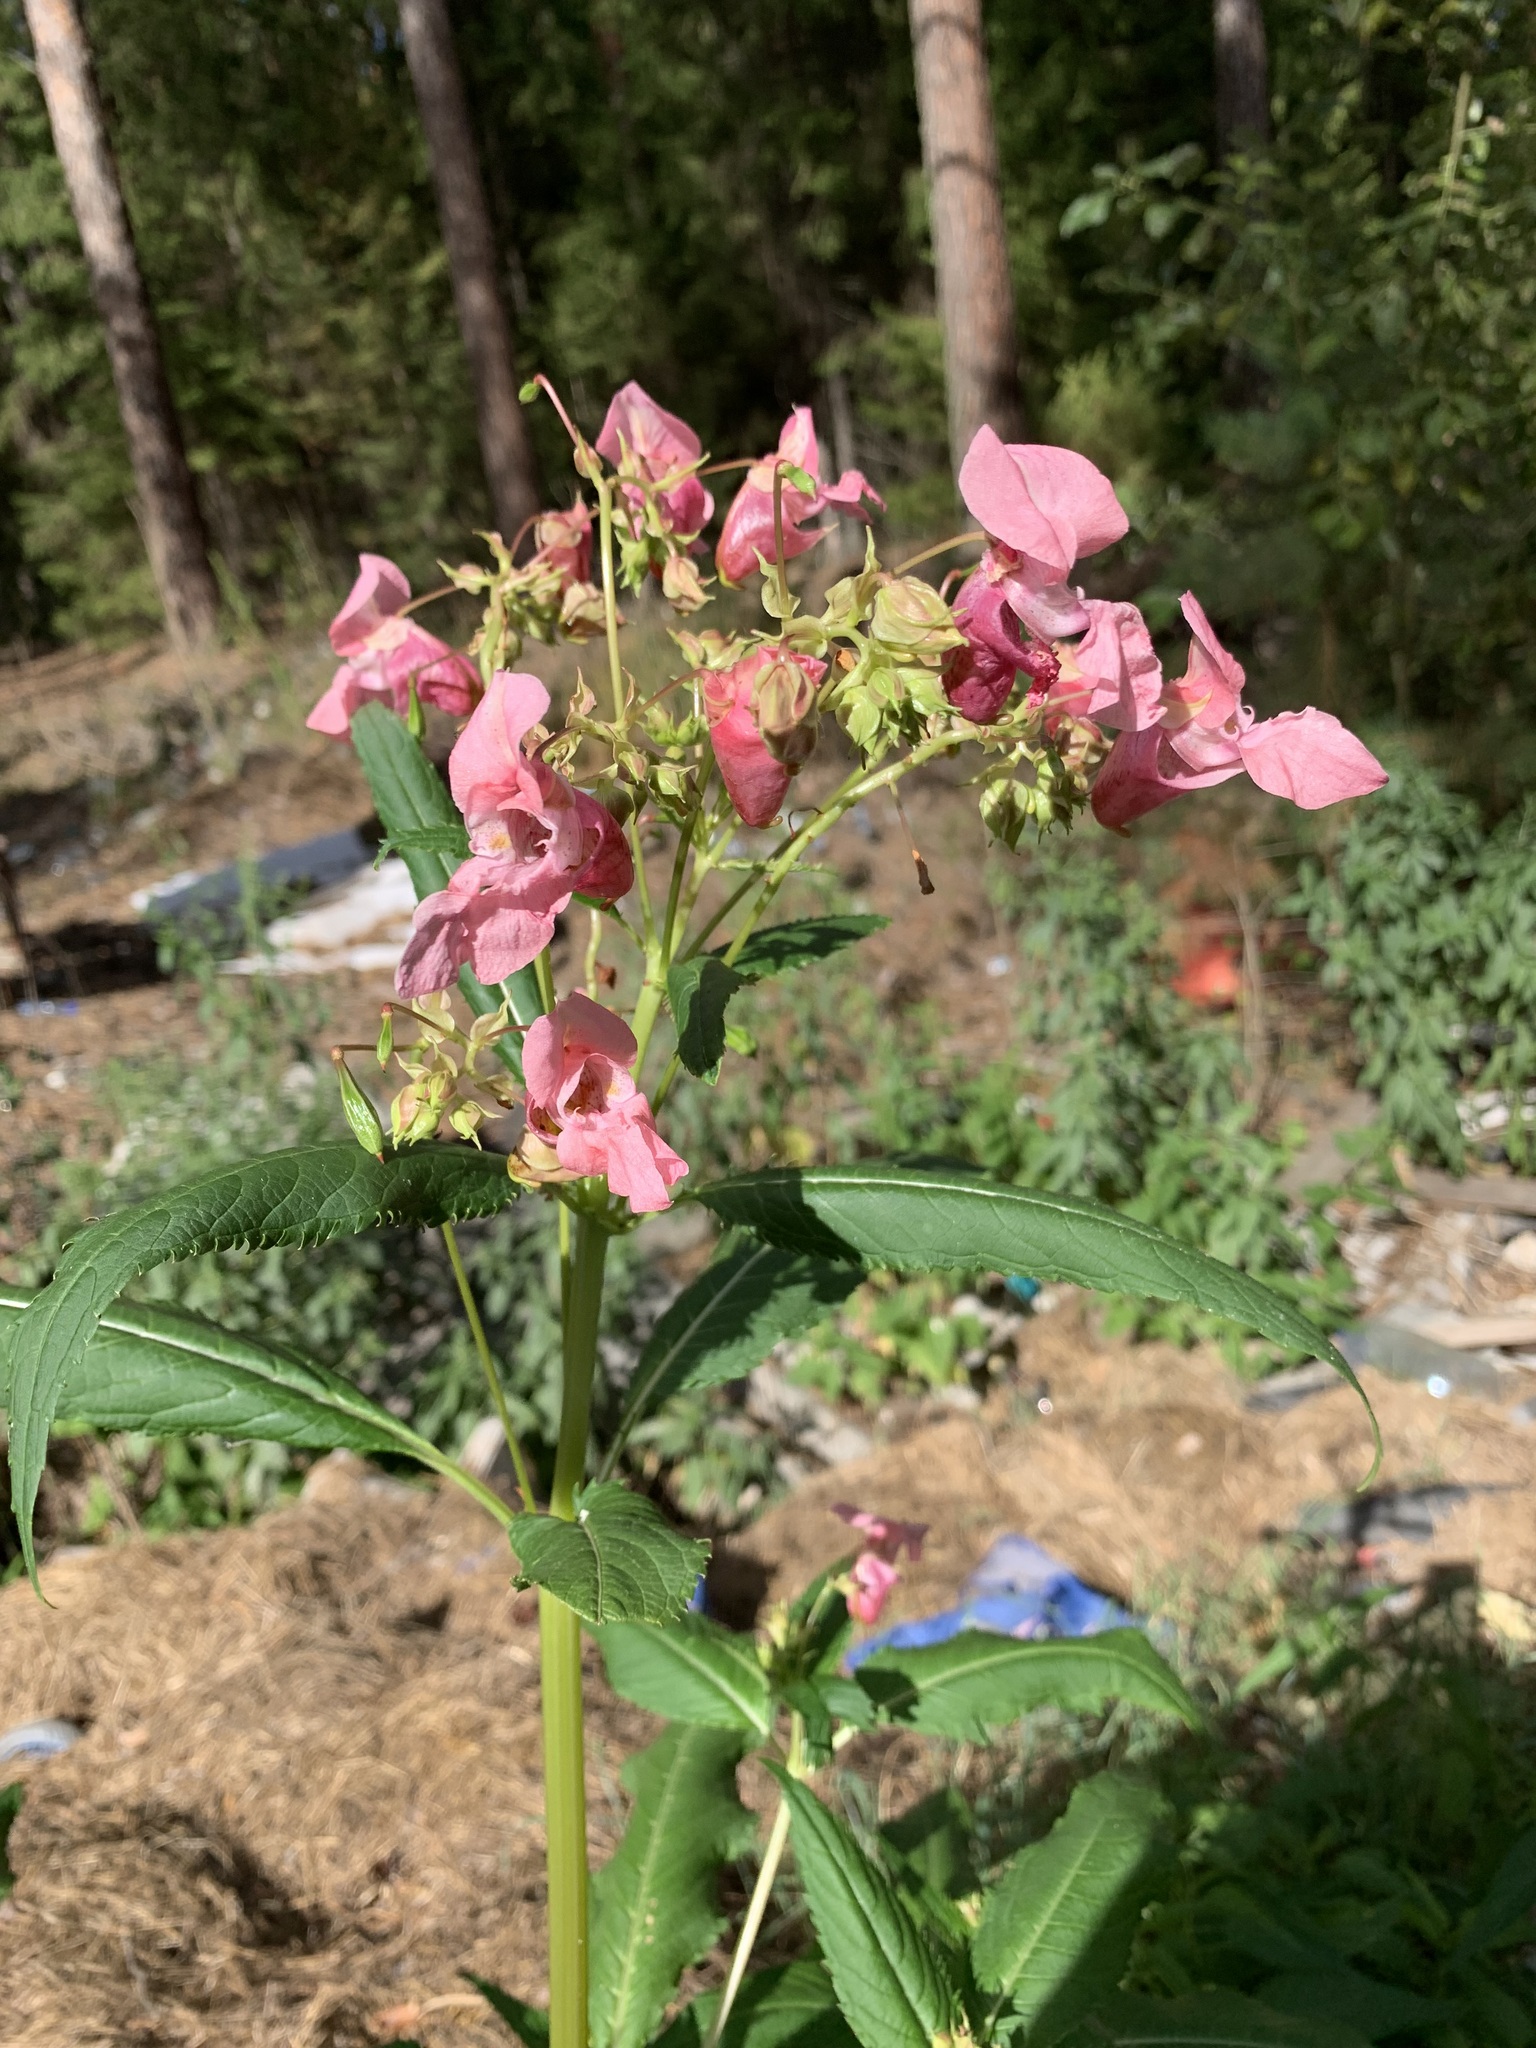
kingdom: Plantae
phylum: Tracheophyta
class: Magnoliopsida
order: Ericales
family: Balsaminaceae
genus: Impatiens
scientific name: Impatiens glandulifera
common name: Himalayan balsam
